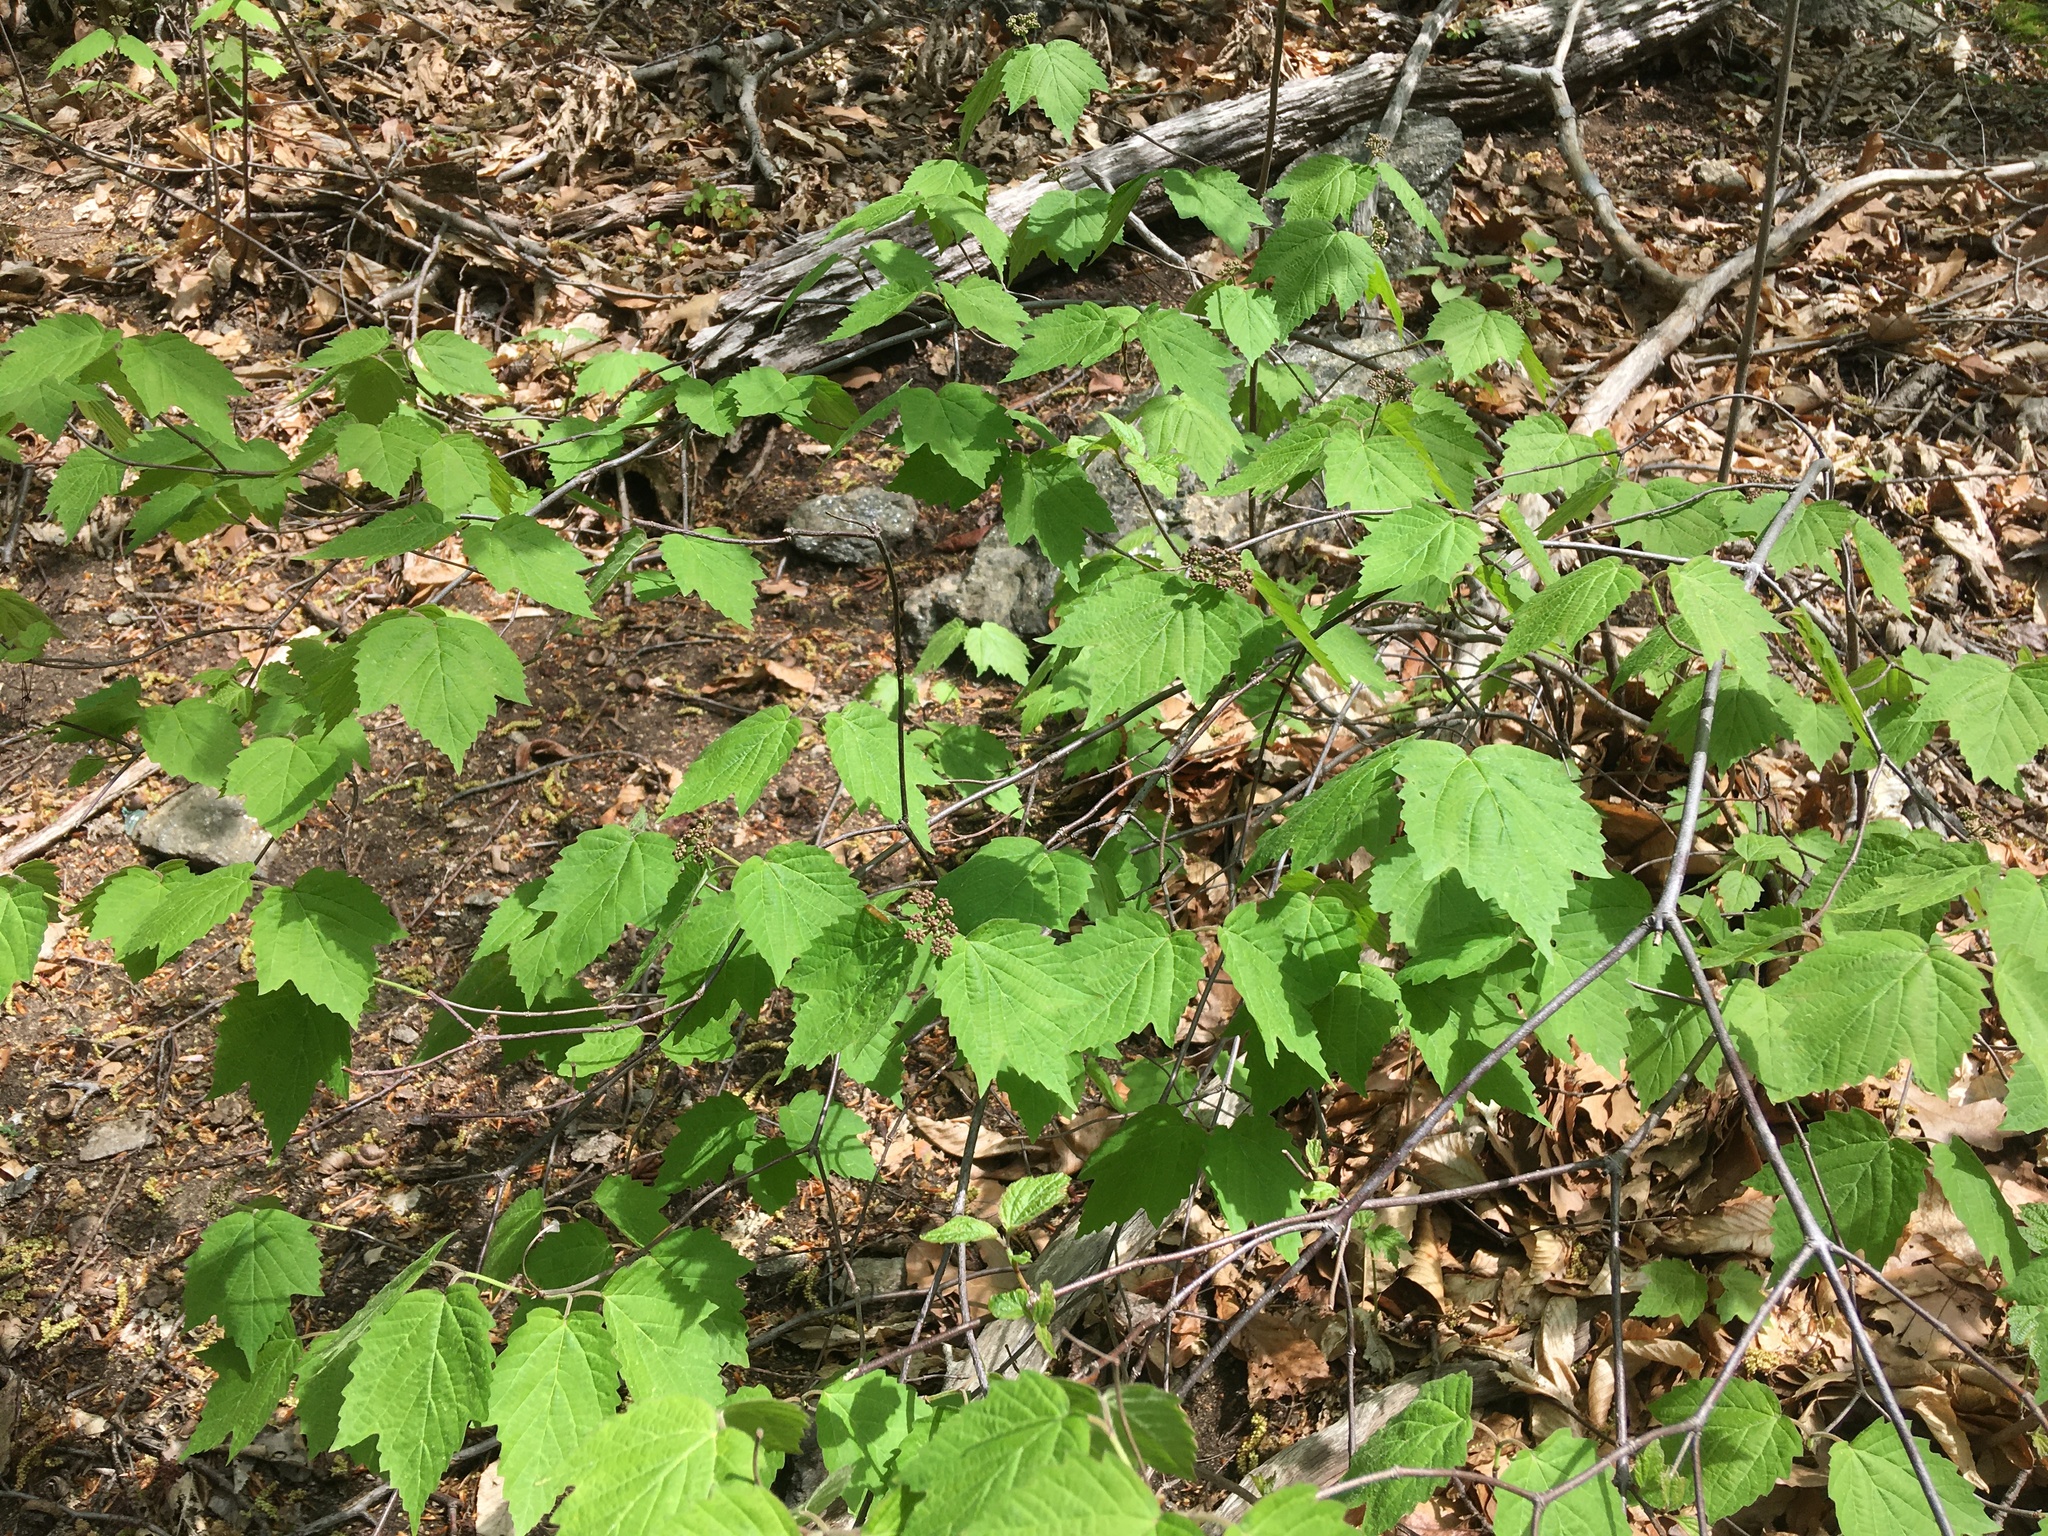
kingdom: Plantae
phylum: Tracheophyta
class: Magnoliopsida
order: Dipsacales
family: Viburnaceae
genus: Viburnum
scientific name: Viburnum acerifolium
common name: Dockmackie
